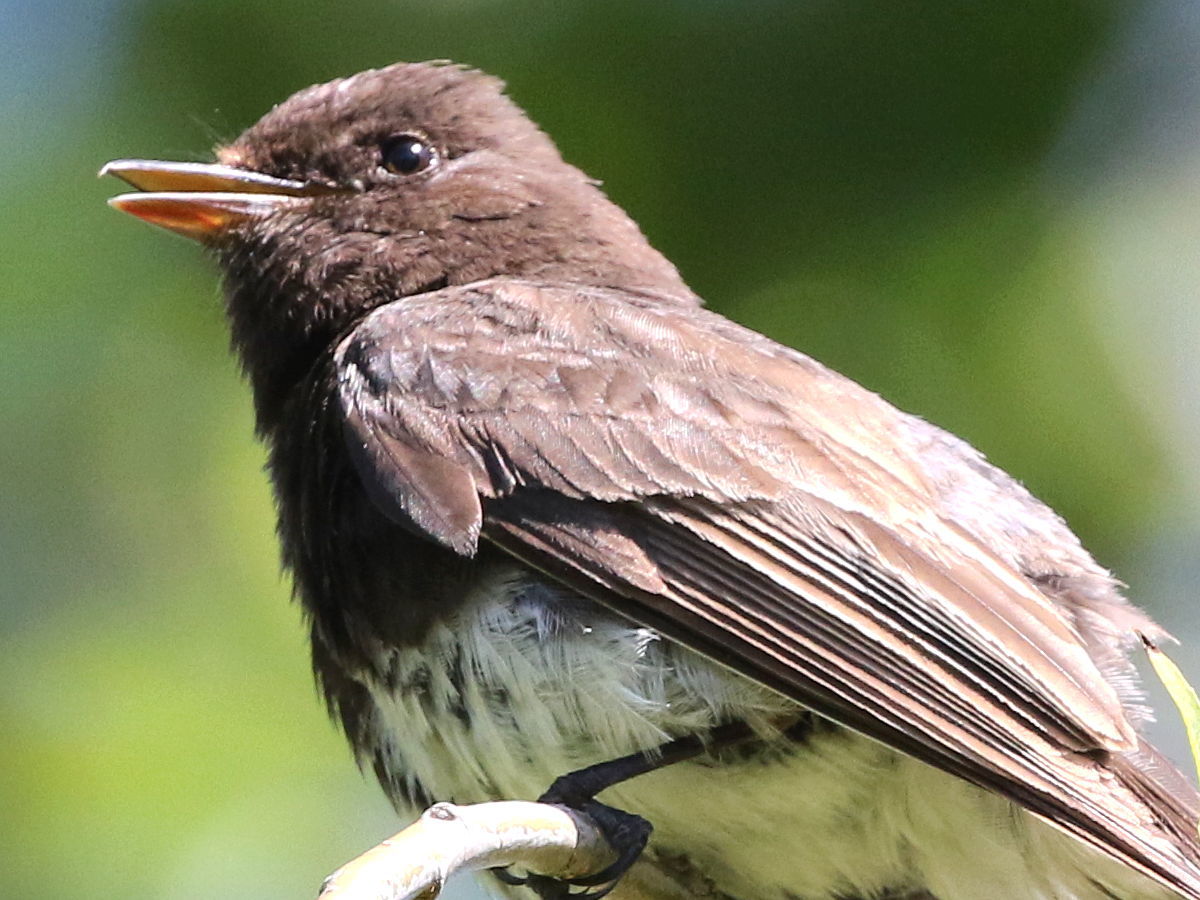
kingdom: Animalia
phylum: Chordata
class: Aves
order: Passeriformes
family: Tyrannidae
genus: Sayornis
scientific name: Sayornis nigricans
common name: Black phoebe
